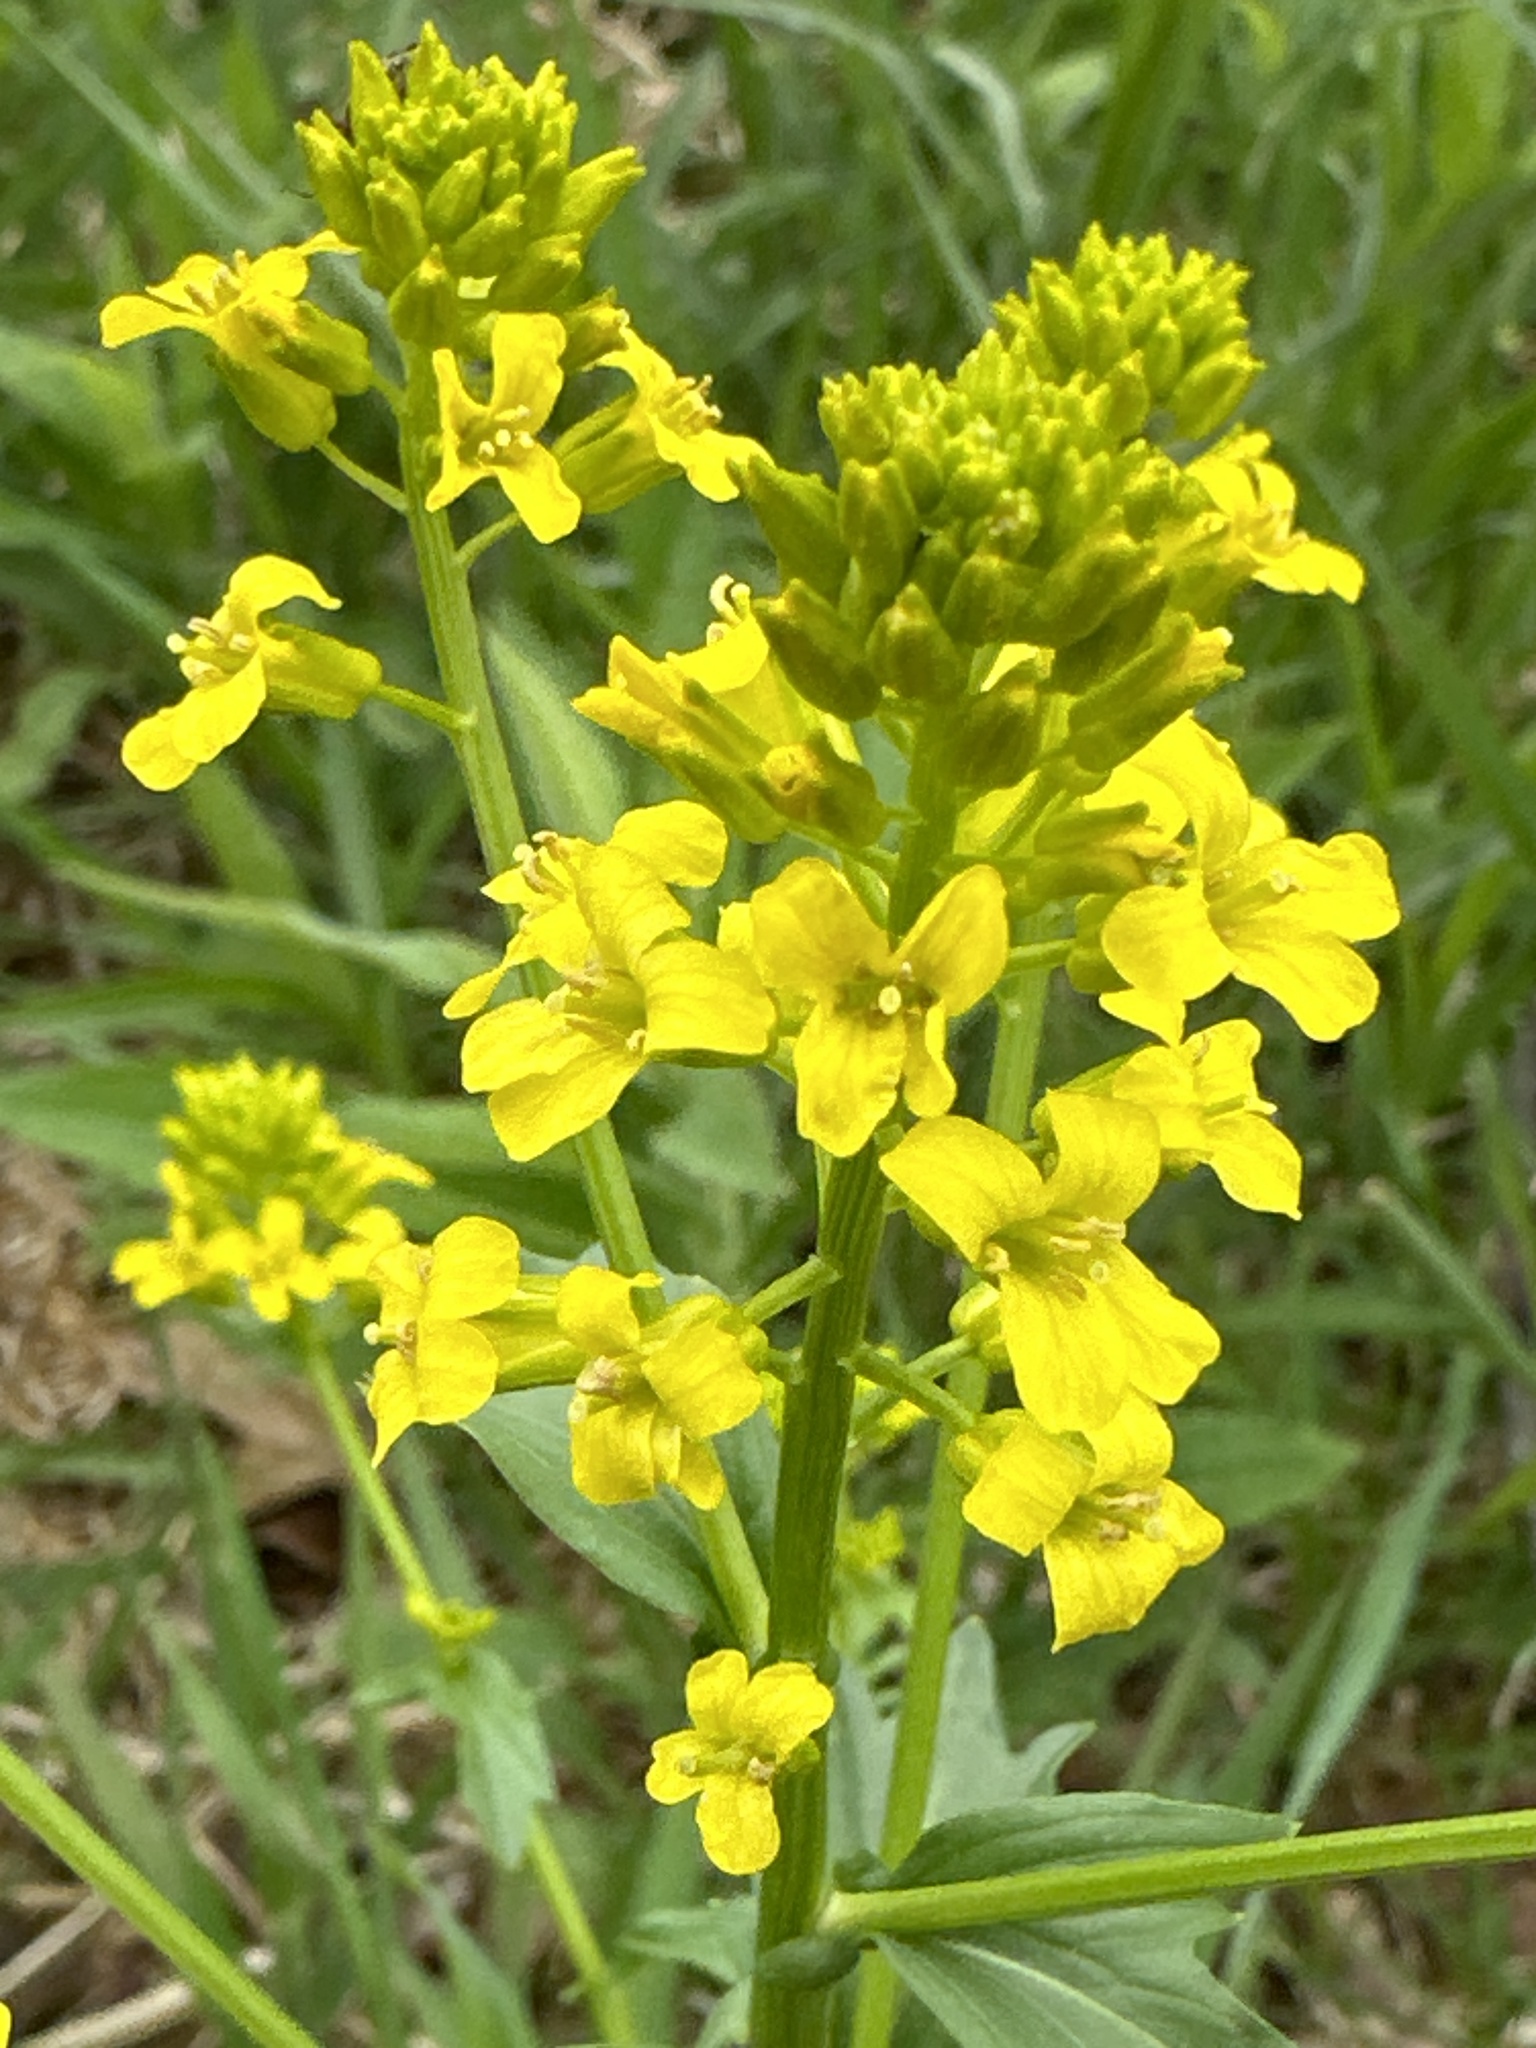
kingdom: Plantae
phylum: Tracheophyta
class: Magnoliopsida
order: Brassicales
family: Brassicaceae
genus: Barbarea
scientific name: Barbarea vulgaris
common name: Cressy-greens
